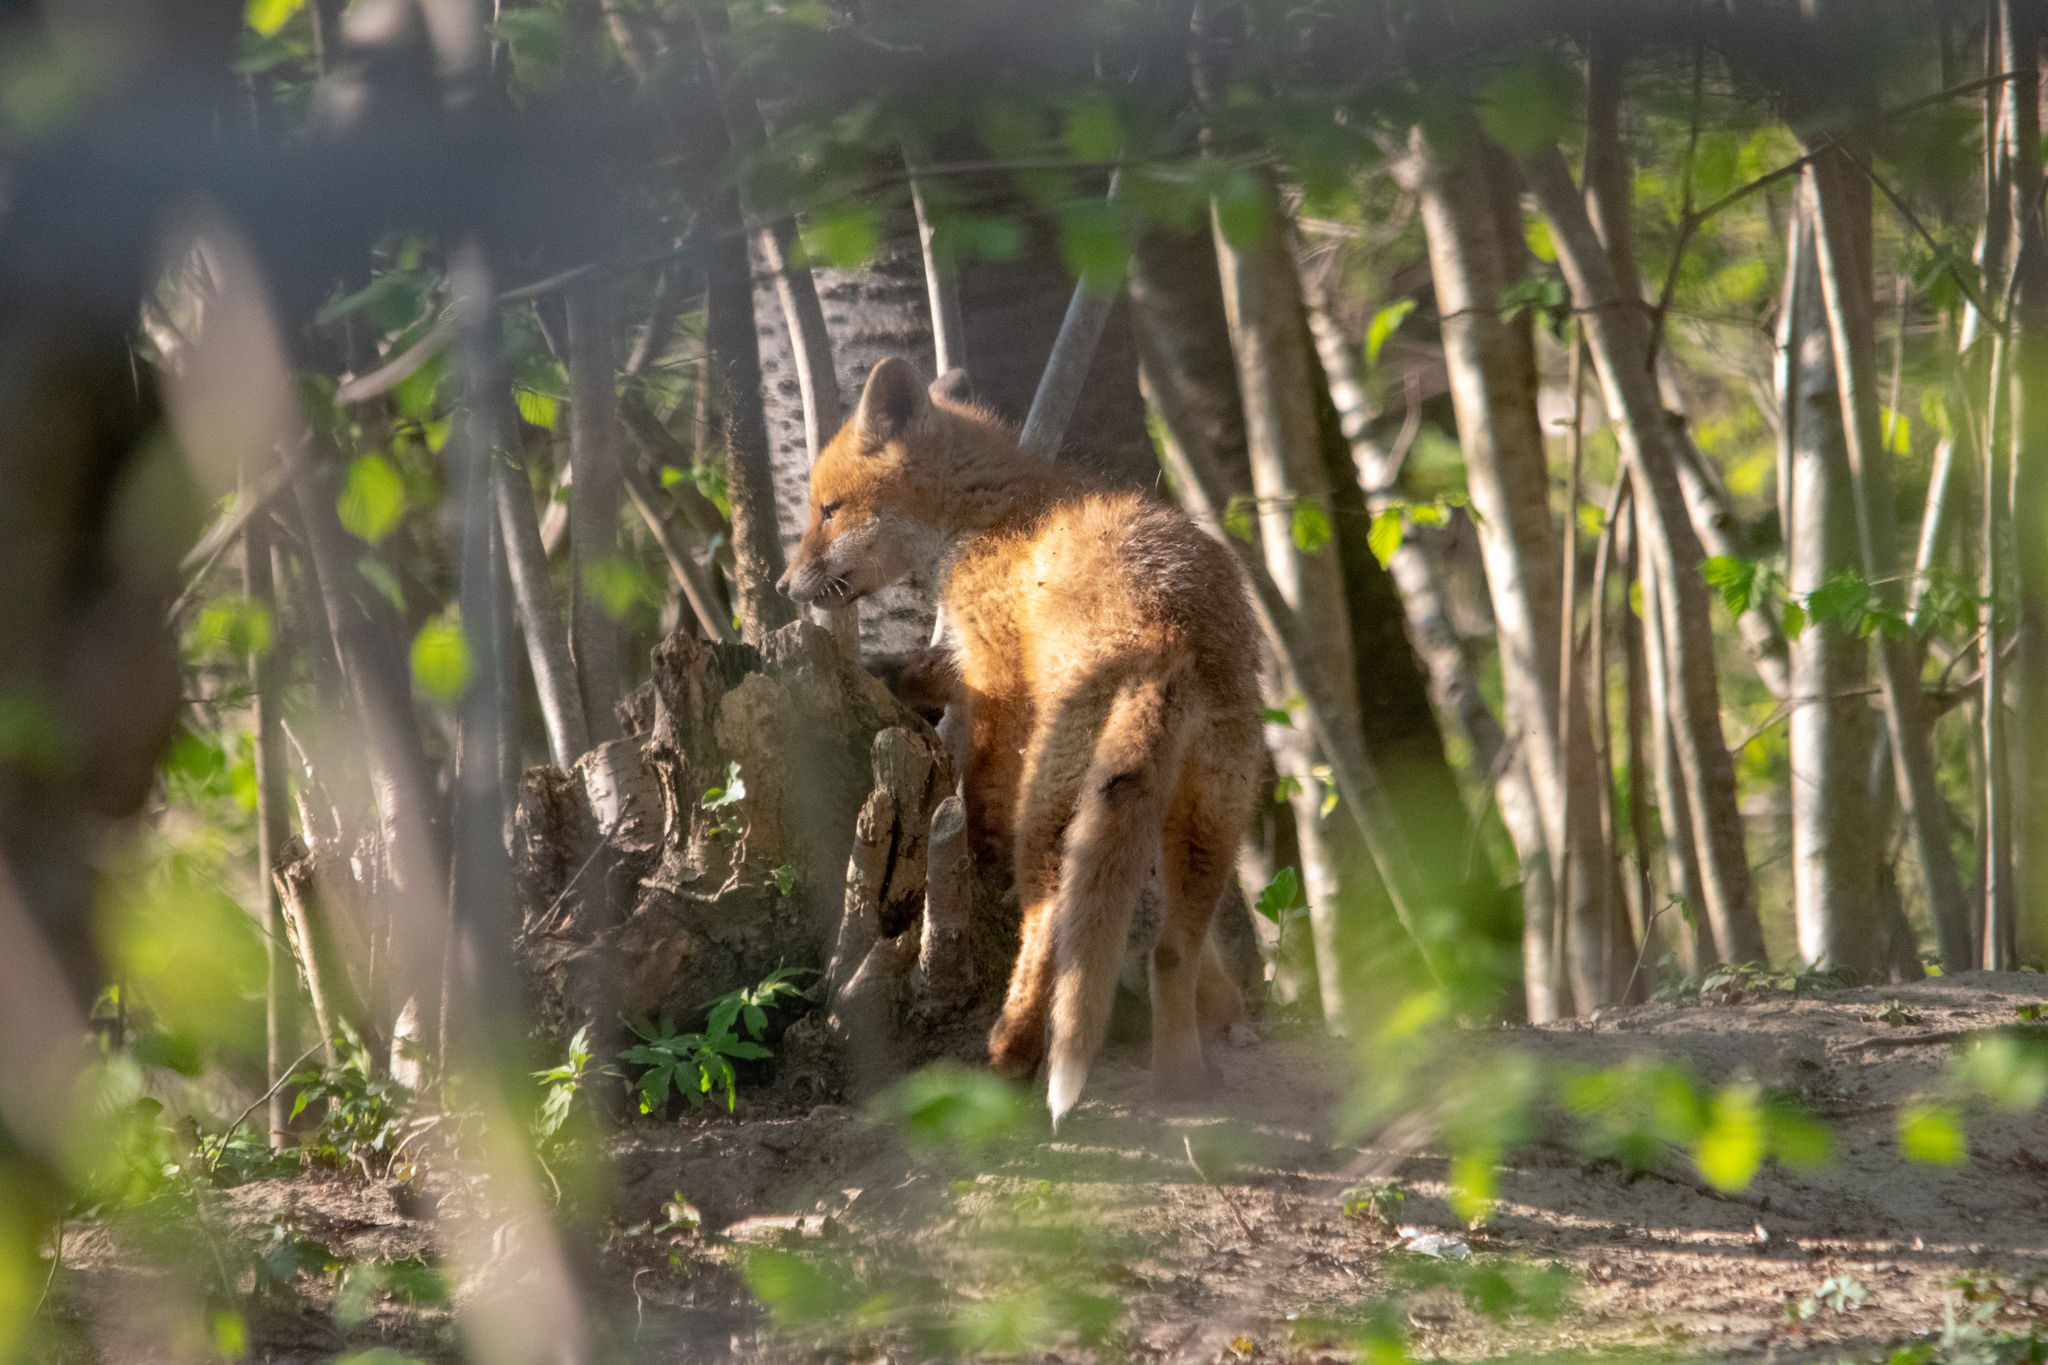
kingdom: Animalia
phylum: Chordata
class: Mammalia
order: Carnivora
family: Canidae
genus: Vulpes
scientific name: Vulpes vulpes
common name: Red fox
